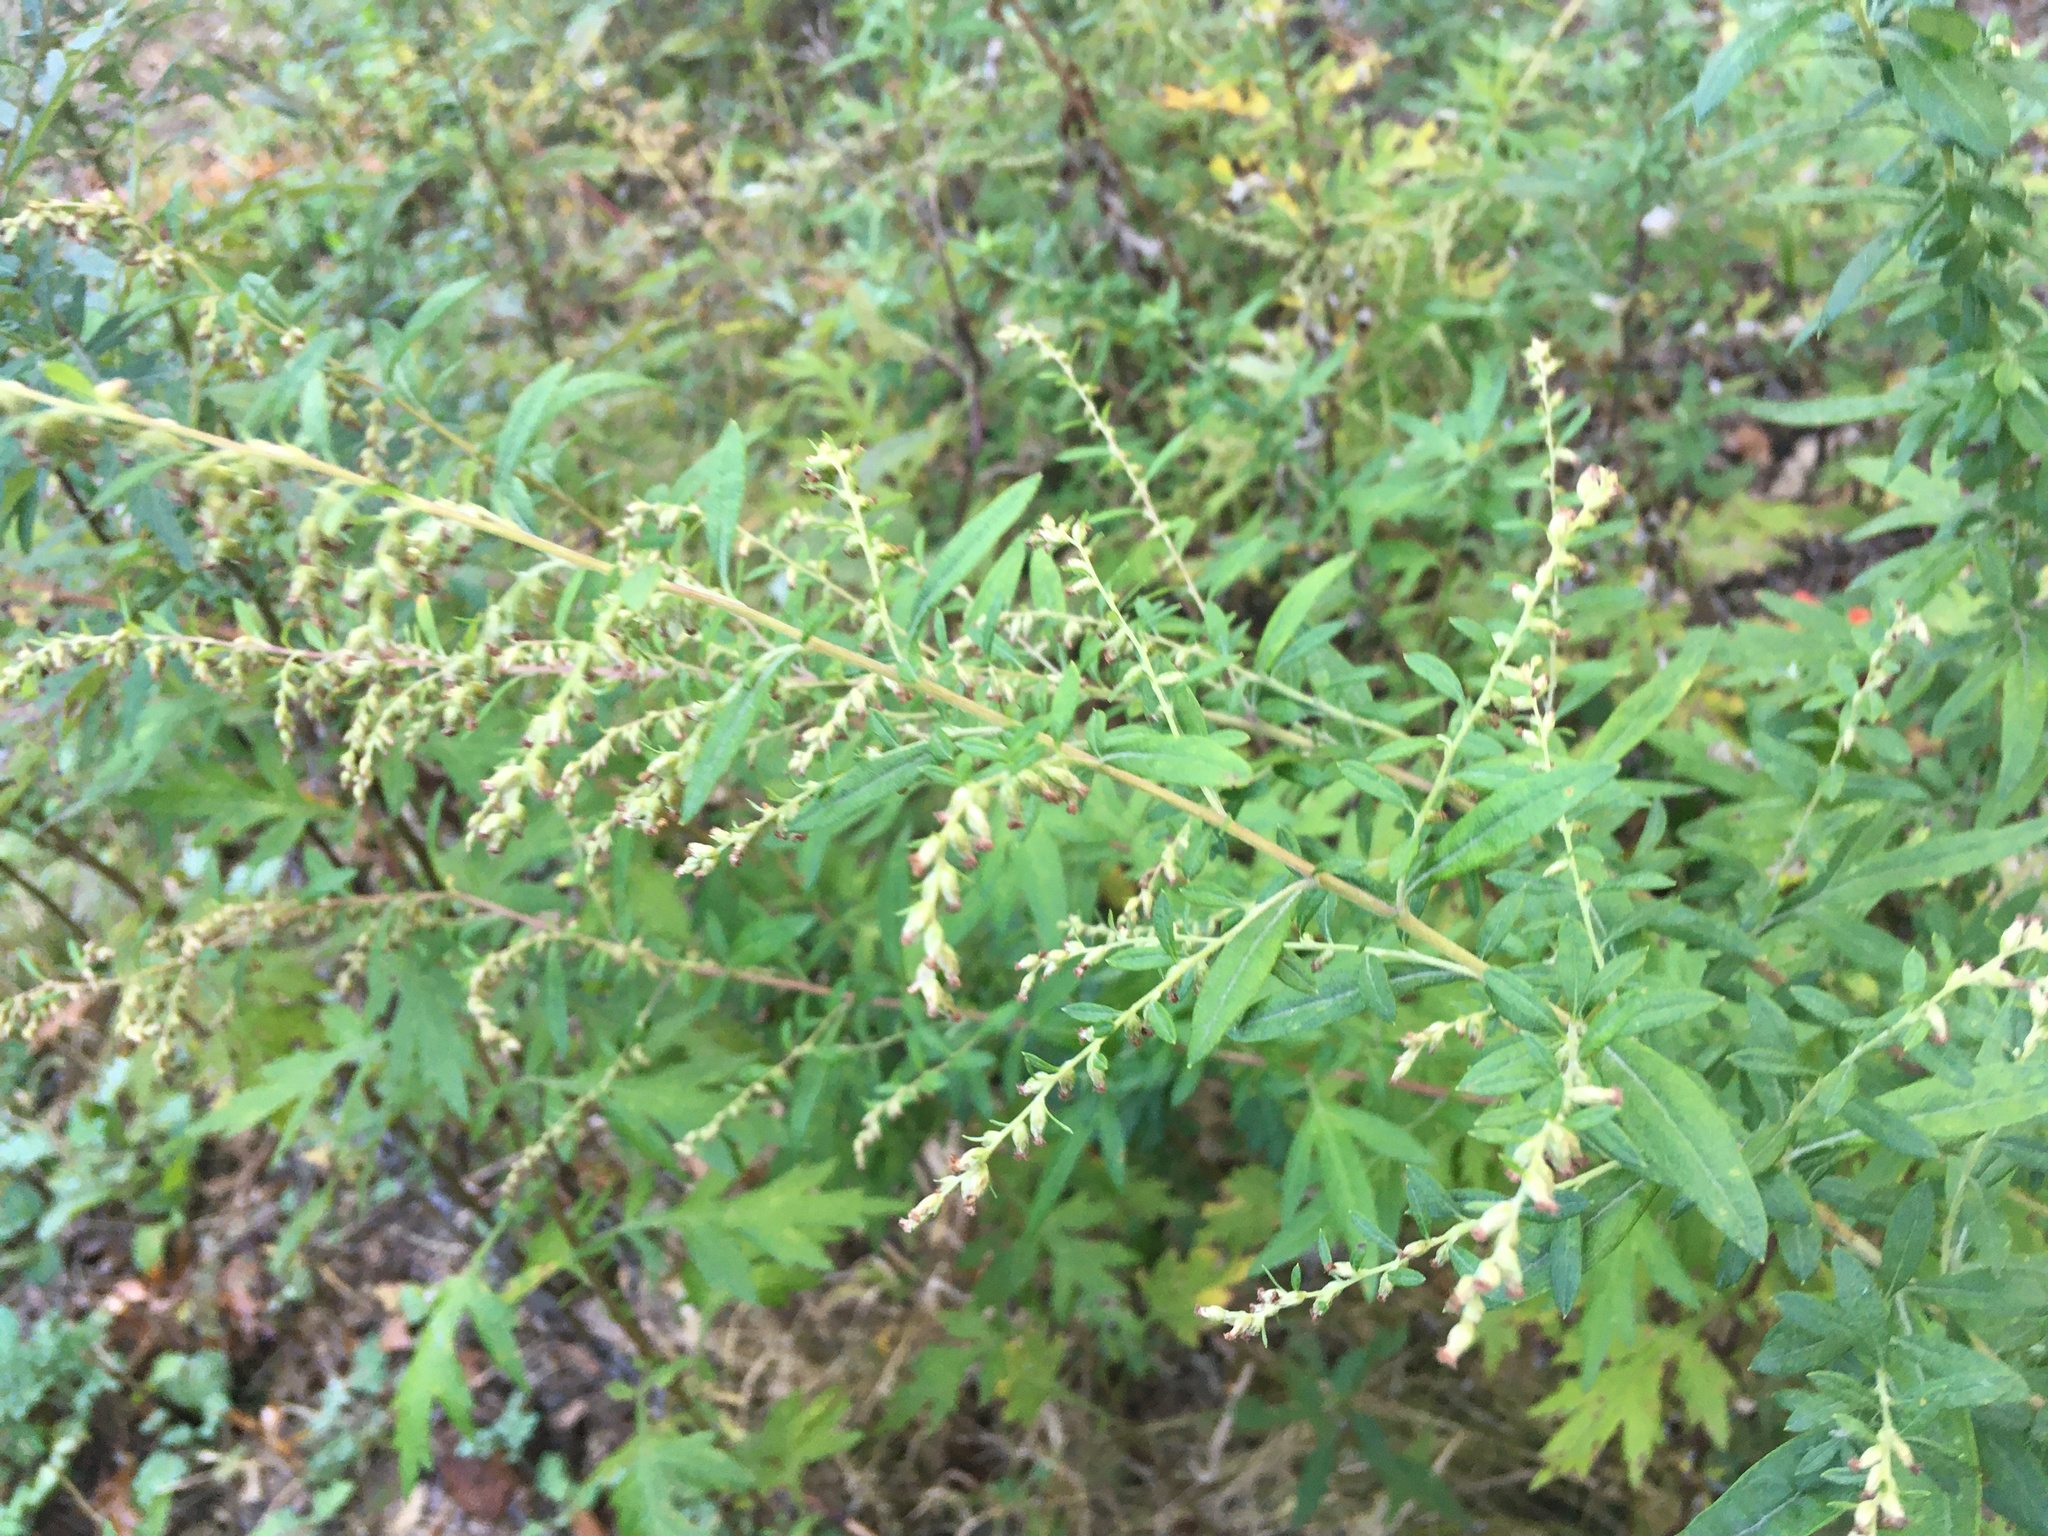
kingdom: Plantae
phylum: Tracheophyta
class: Magnoliopsida
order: Asterales
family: Asteraceae
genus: Artemisia
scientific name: Artemisia vulgaris
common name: Mugwort
